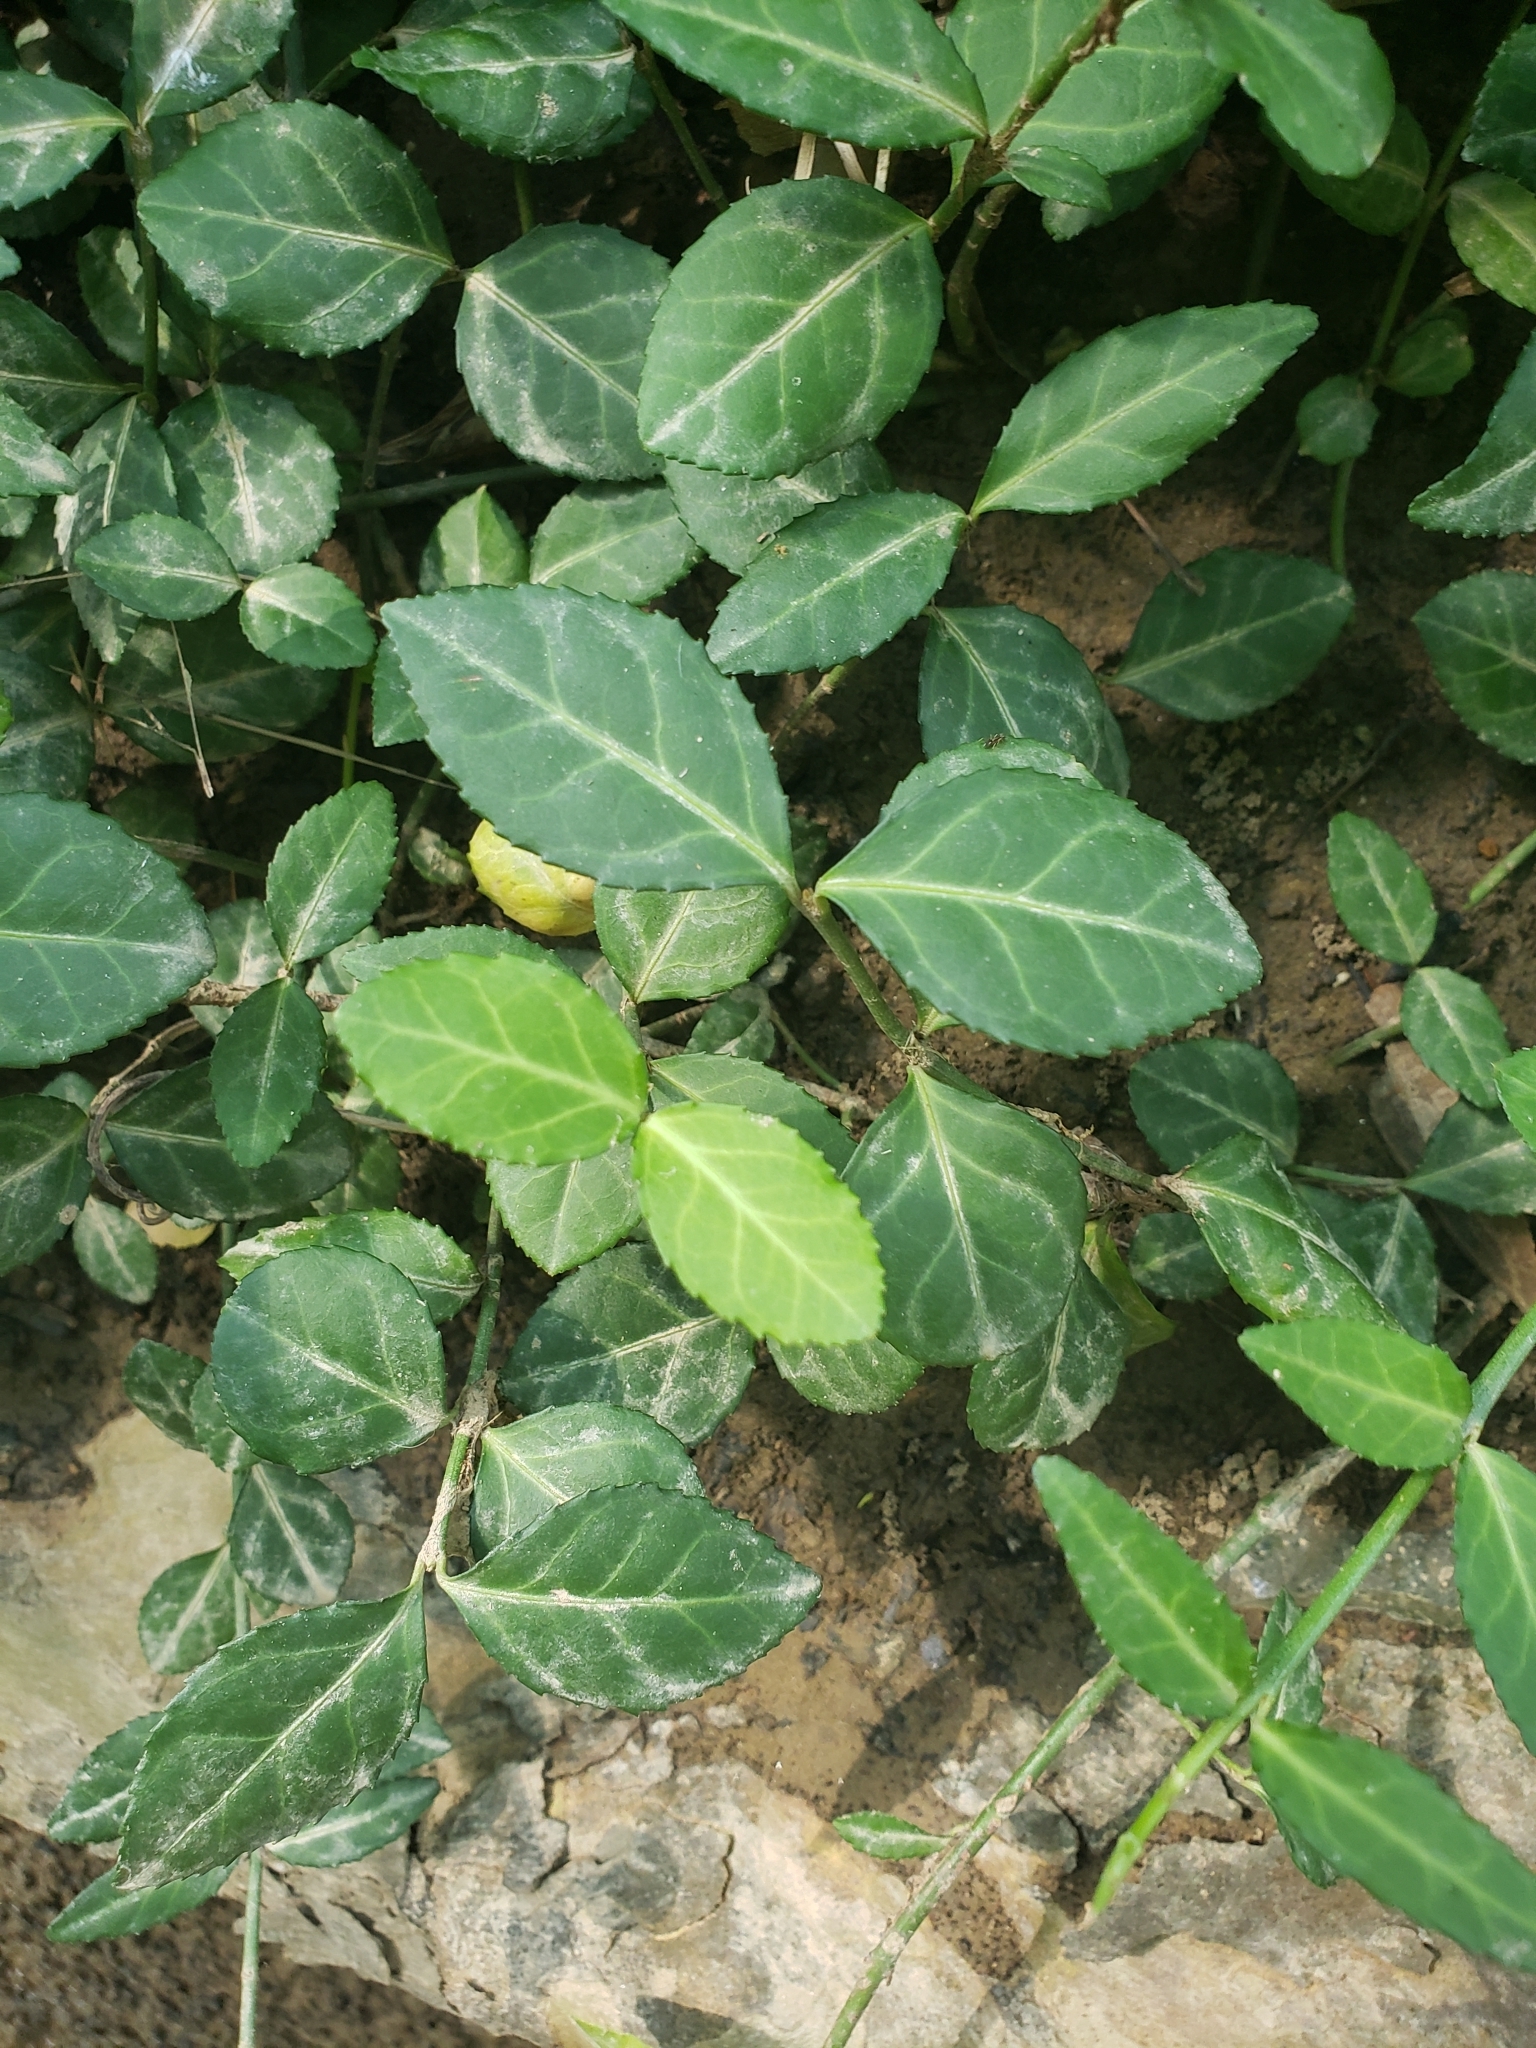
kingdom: Plantae
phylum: Tracheophyta
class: Magnoliopsida
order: Celastrales
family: Celastraceae
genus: Euonymus
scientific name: Euonymus fortunei
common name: Climbing euonymus
